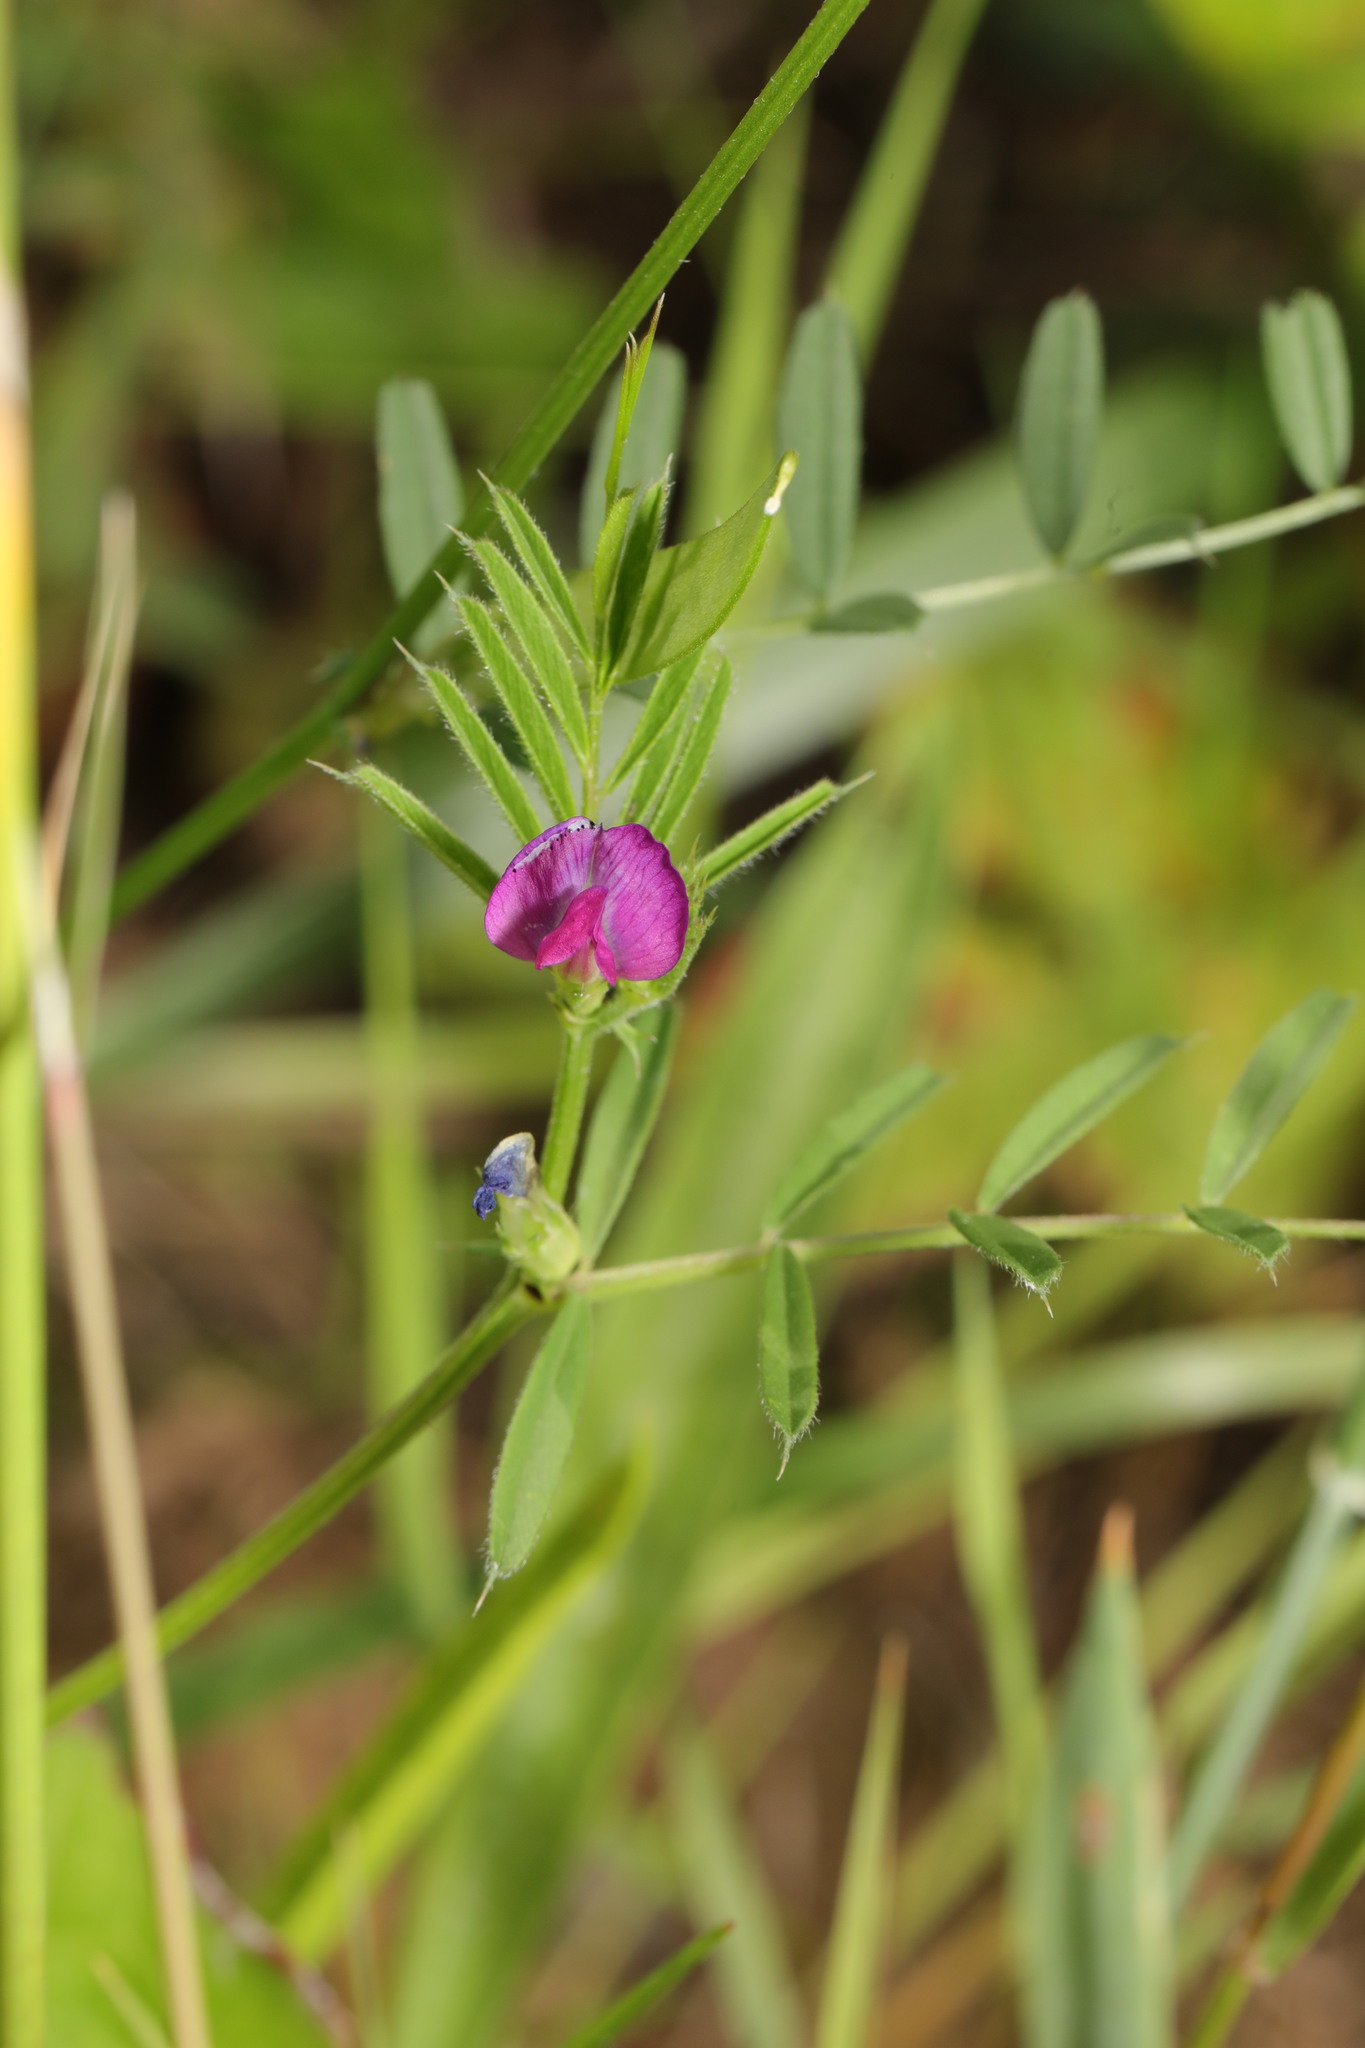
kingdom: Plantae
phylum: Tracheophyta
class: Magnoliopsida
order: Fabales
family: Fabaceae
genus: Vicia
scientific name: Vicia sativa
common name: Garden vetch
